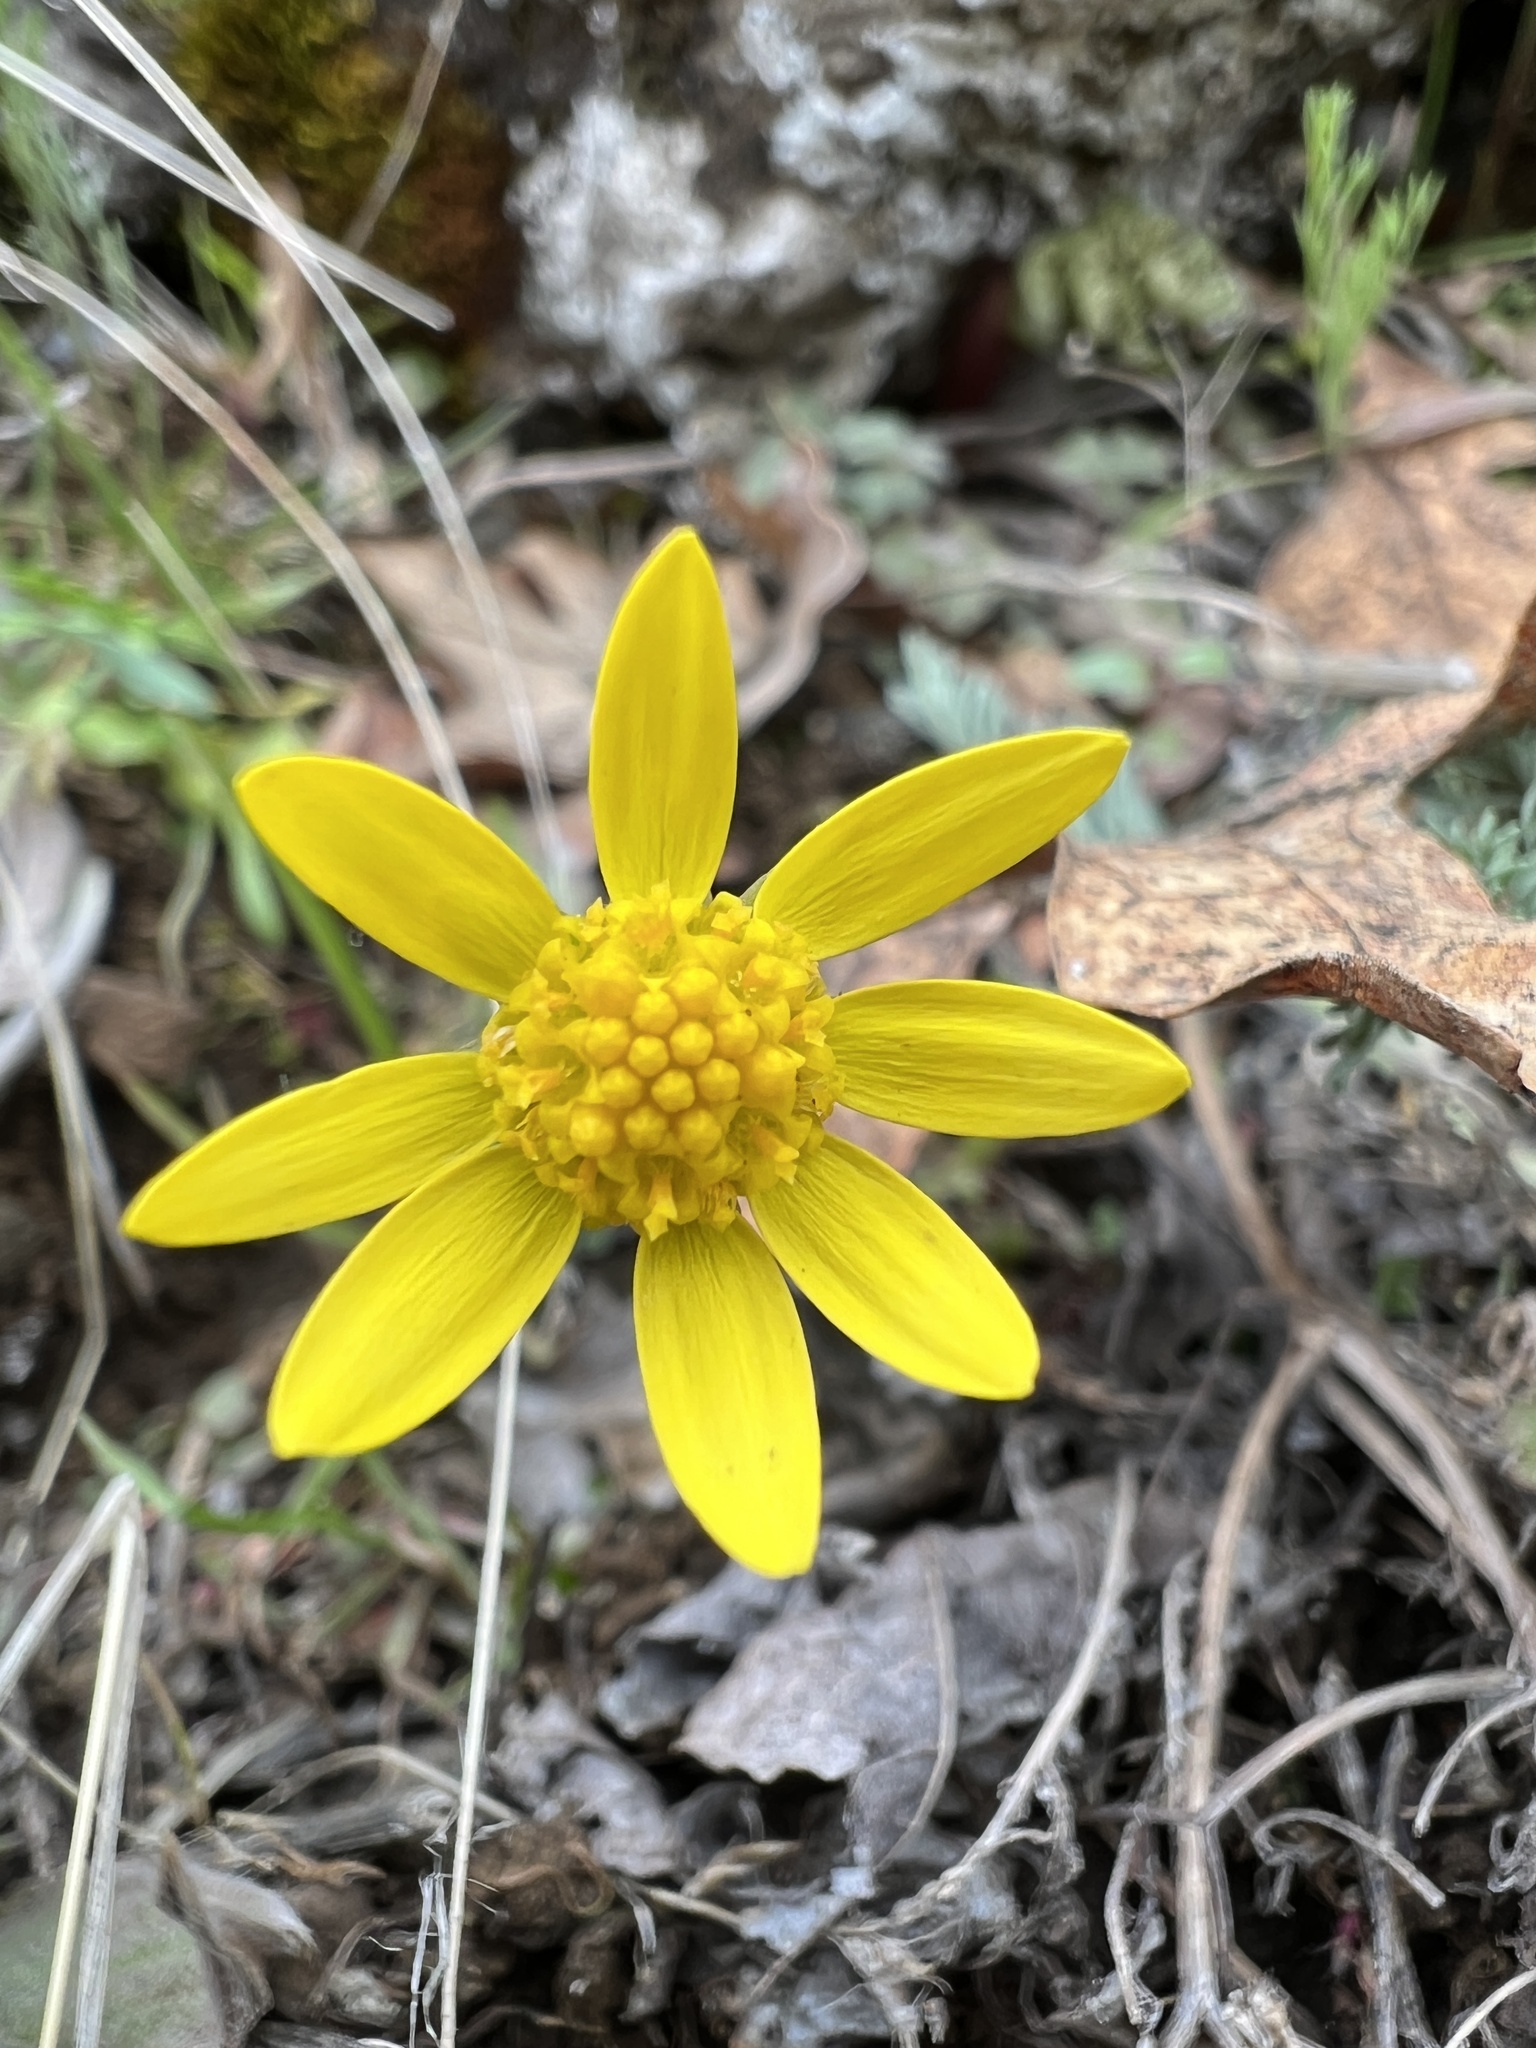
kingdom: Plantae
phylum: Tracheophyta
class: Magnoliopsida
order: Asterales
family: Asteraceae
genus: Crocidium
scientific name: Crocidium multicaule
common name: Common spring gold
